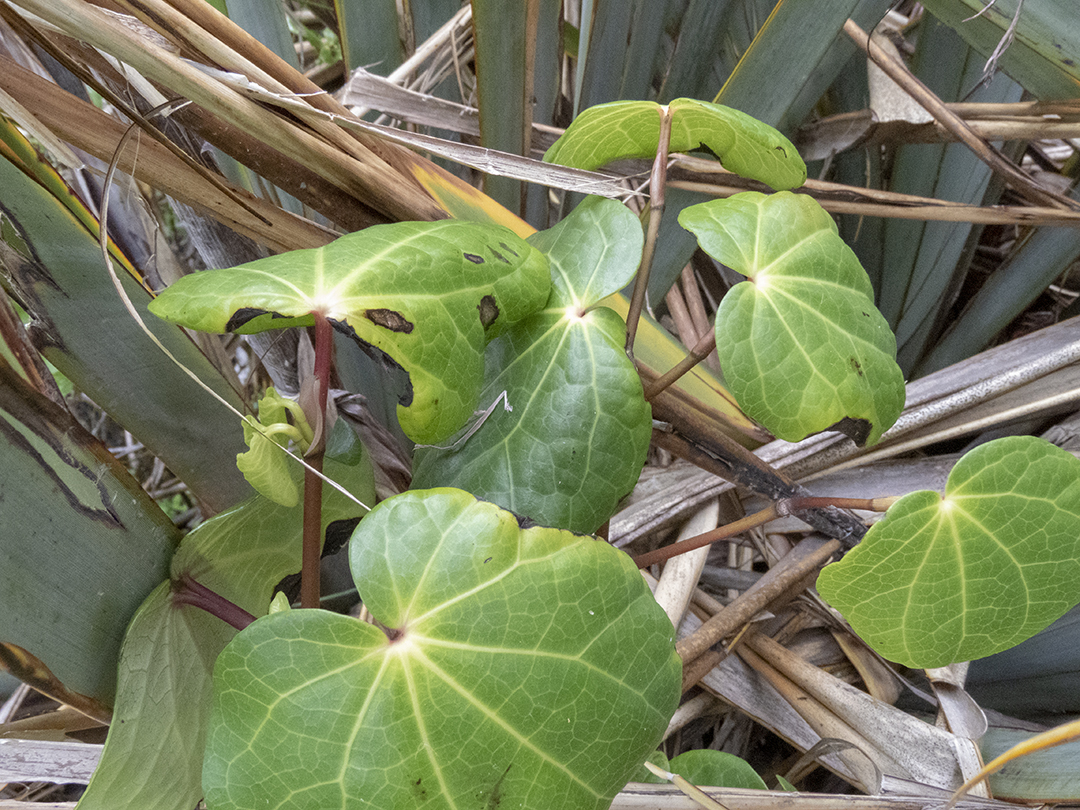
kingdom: Plantae
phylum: Tracheophyta
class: Magnoliopsida
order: Piperales
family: Piperaceae
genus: Macropiper
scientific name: Macropiper excelsum
